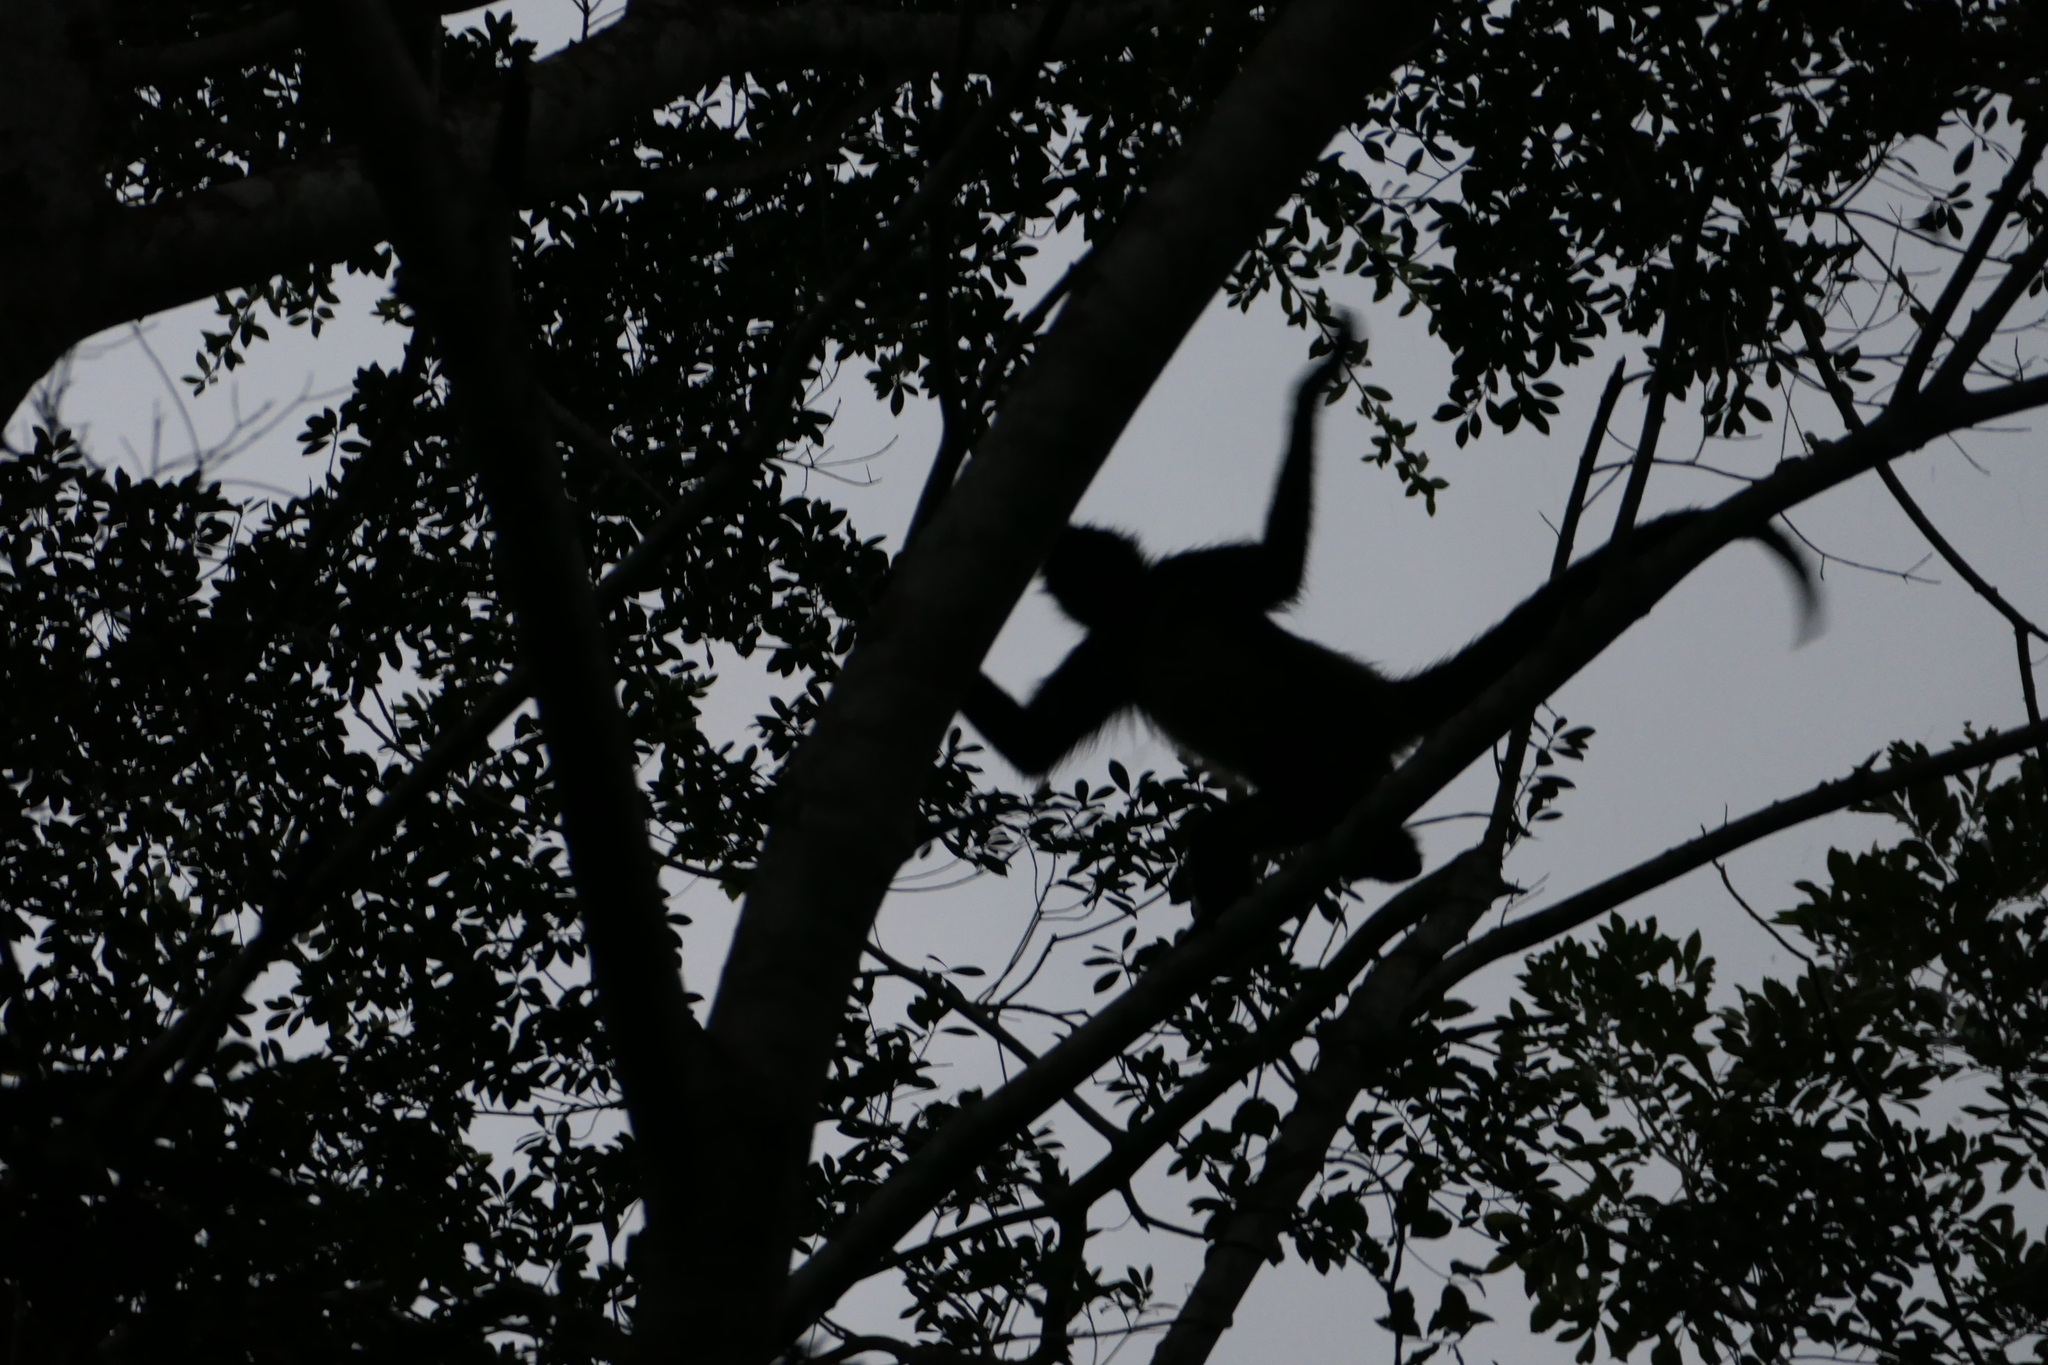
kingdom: Animalia
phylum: Chordata
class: Mammalia
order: Primates
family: Atelidae
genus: Ateles
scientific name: Ateles geoffroyi
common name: Black-handed spider monkey
